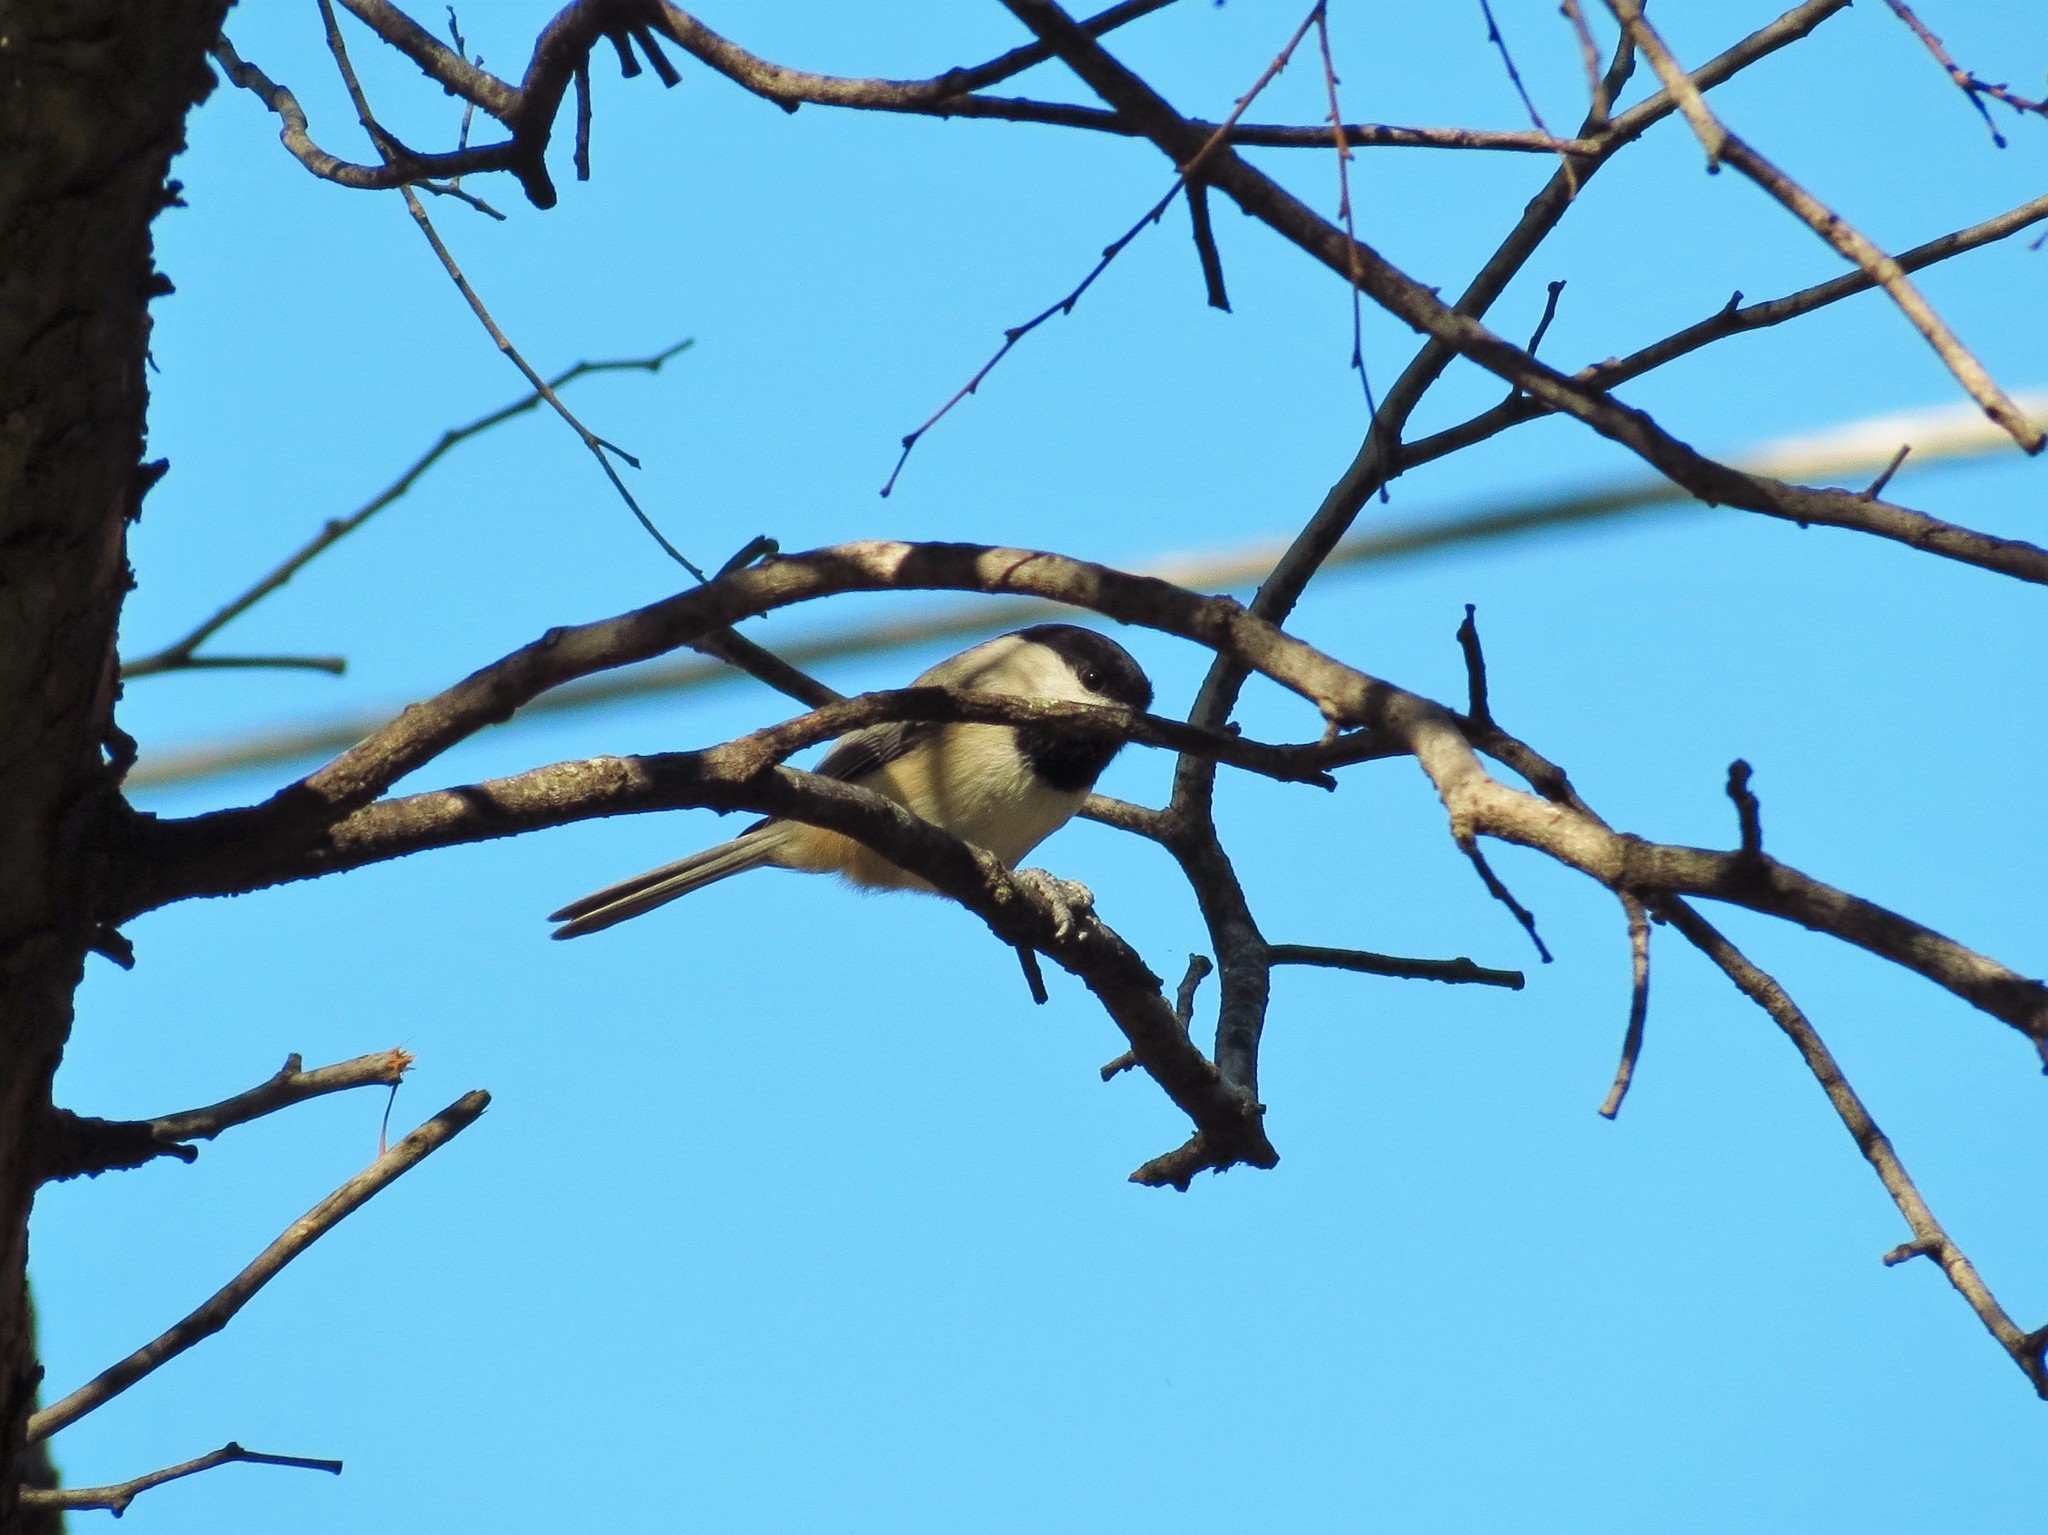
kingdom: Animalia
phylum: Chordata
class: Aves
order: Passeriformes
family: Paridae
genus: Poecile
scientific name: Poecile carolinensis
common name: Carolina chickadee
